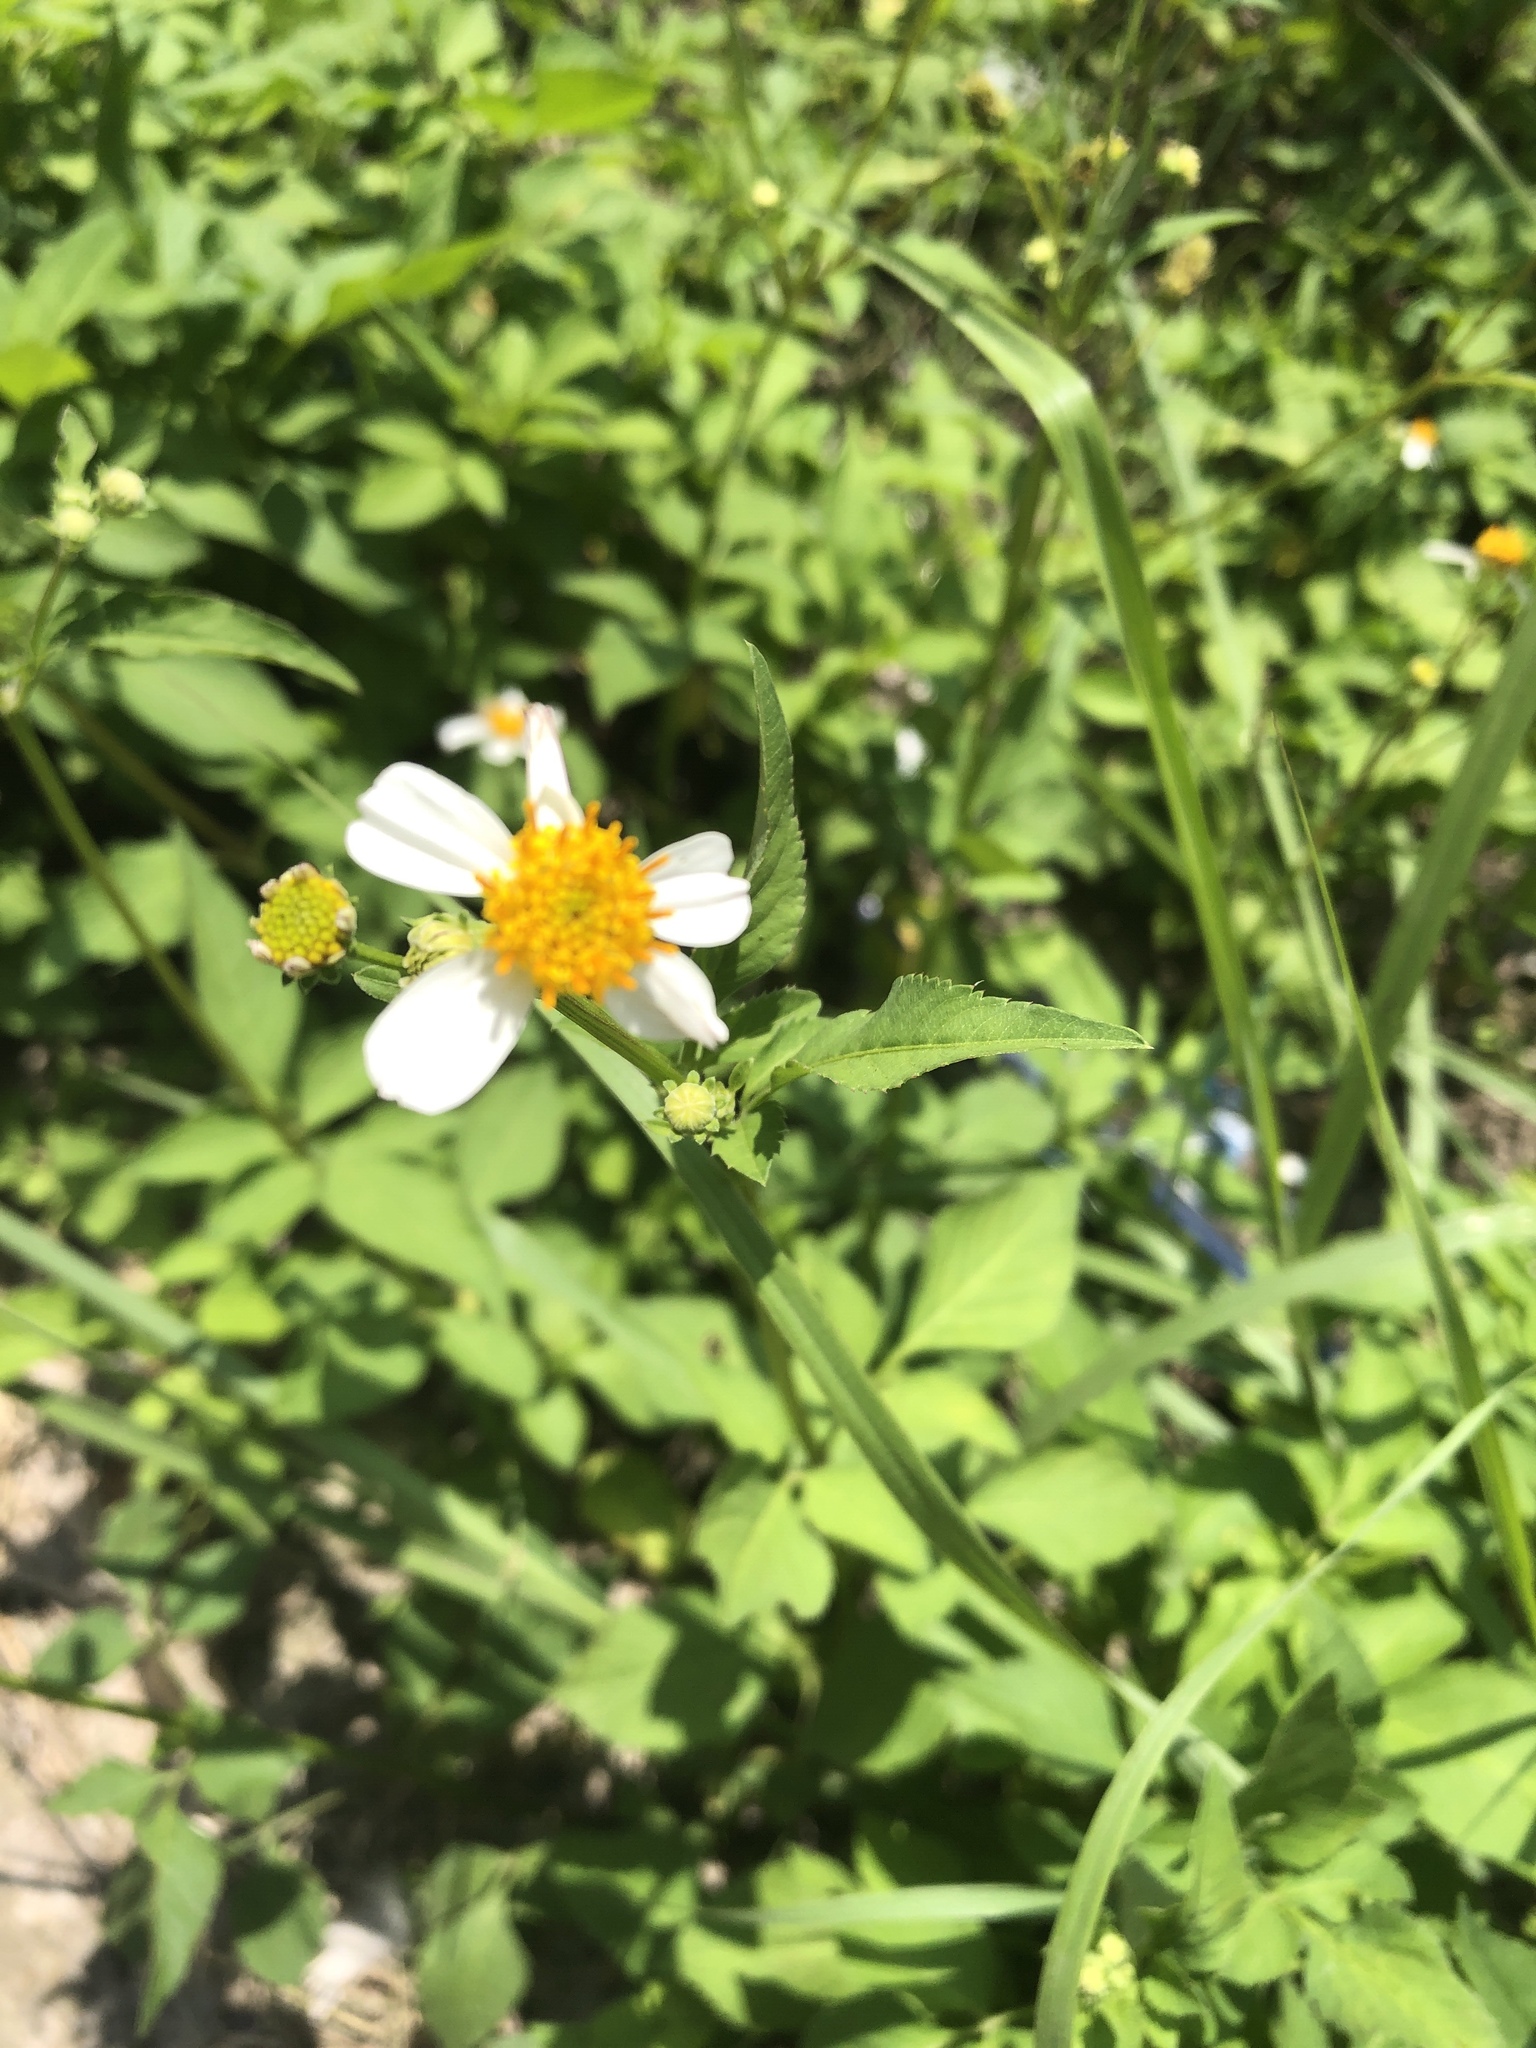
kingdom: Plantae
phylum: Tracheophyta
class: Magnoliopsida
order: Asterales
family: Asteraceae
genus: Bidens
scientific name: Bidens pilosa
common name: Black-jack
